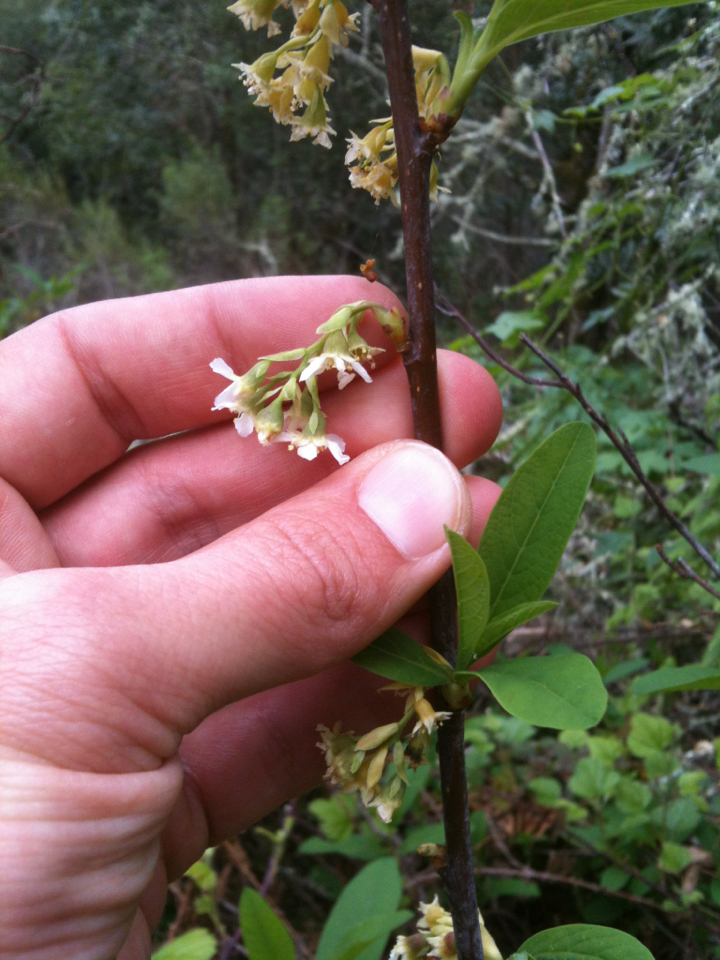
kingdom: Plantae
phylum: Tracheophyta
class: Magnoliopsida
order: Rosales
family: Rosaceae
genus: Oemleria
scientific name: Oemleria cerasiformis
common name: Osoberry
